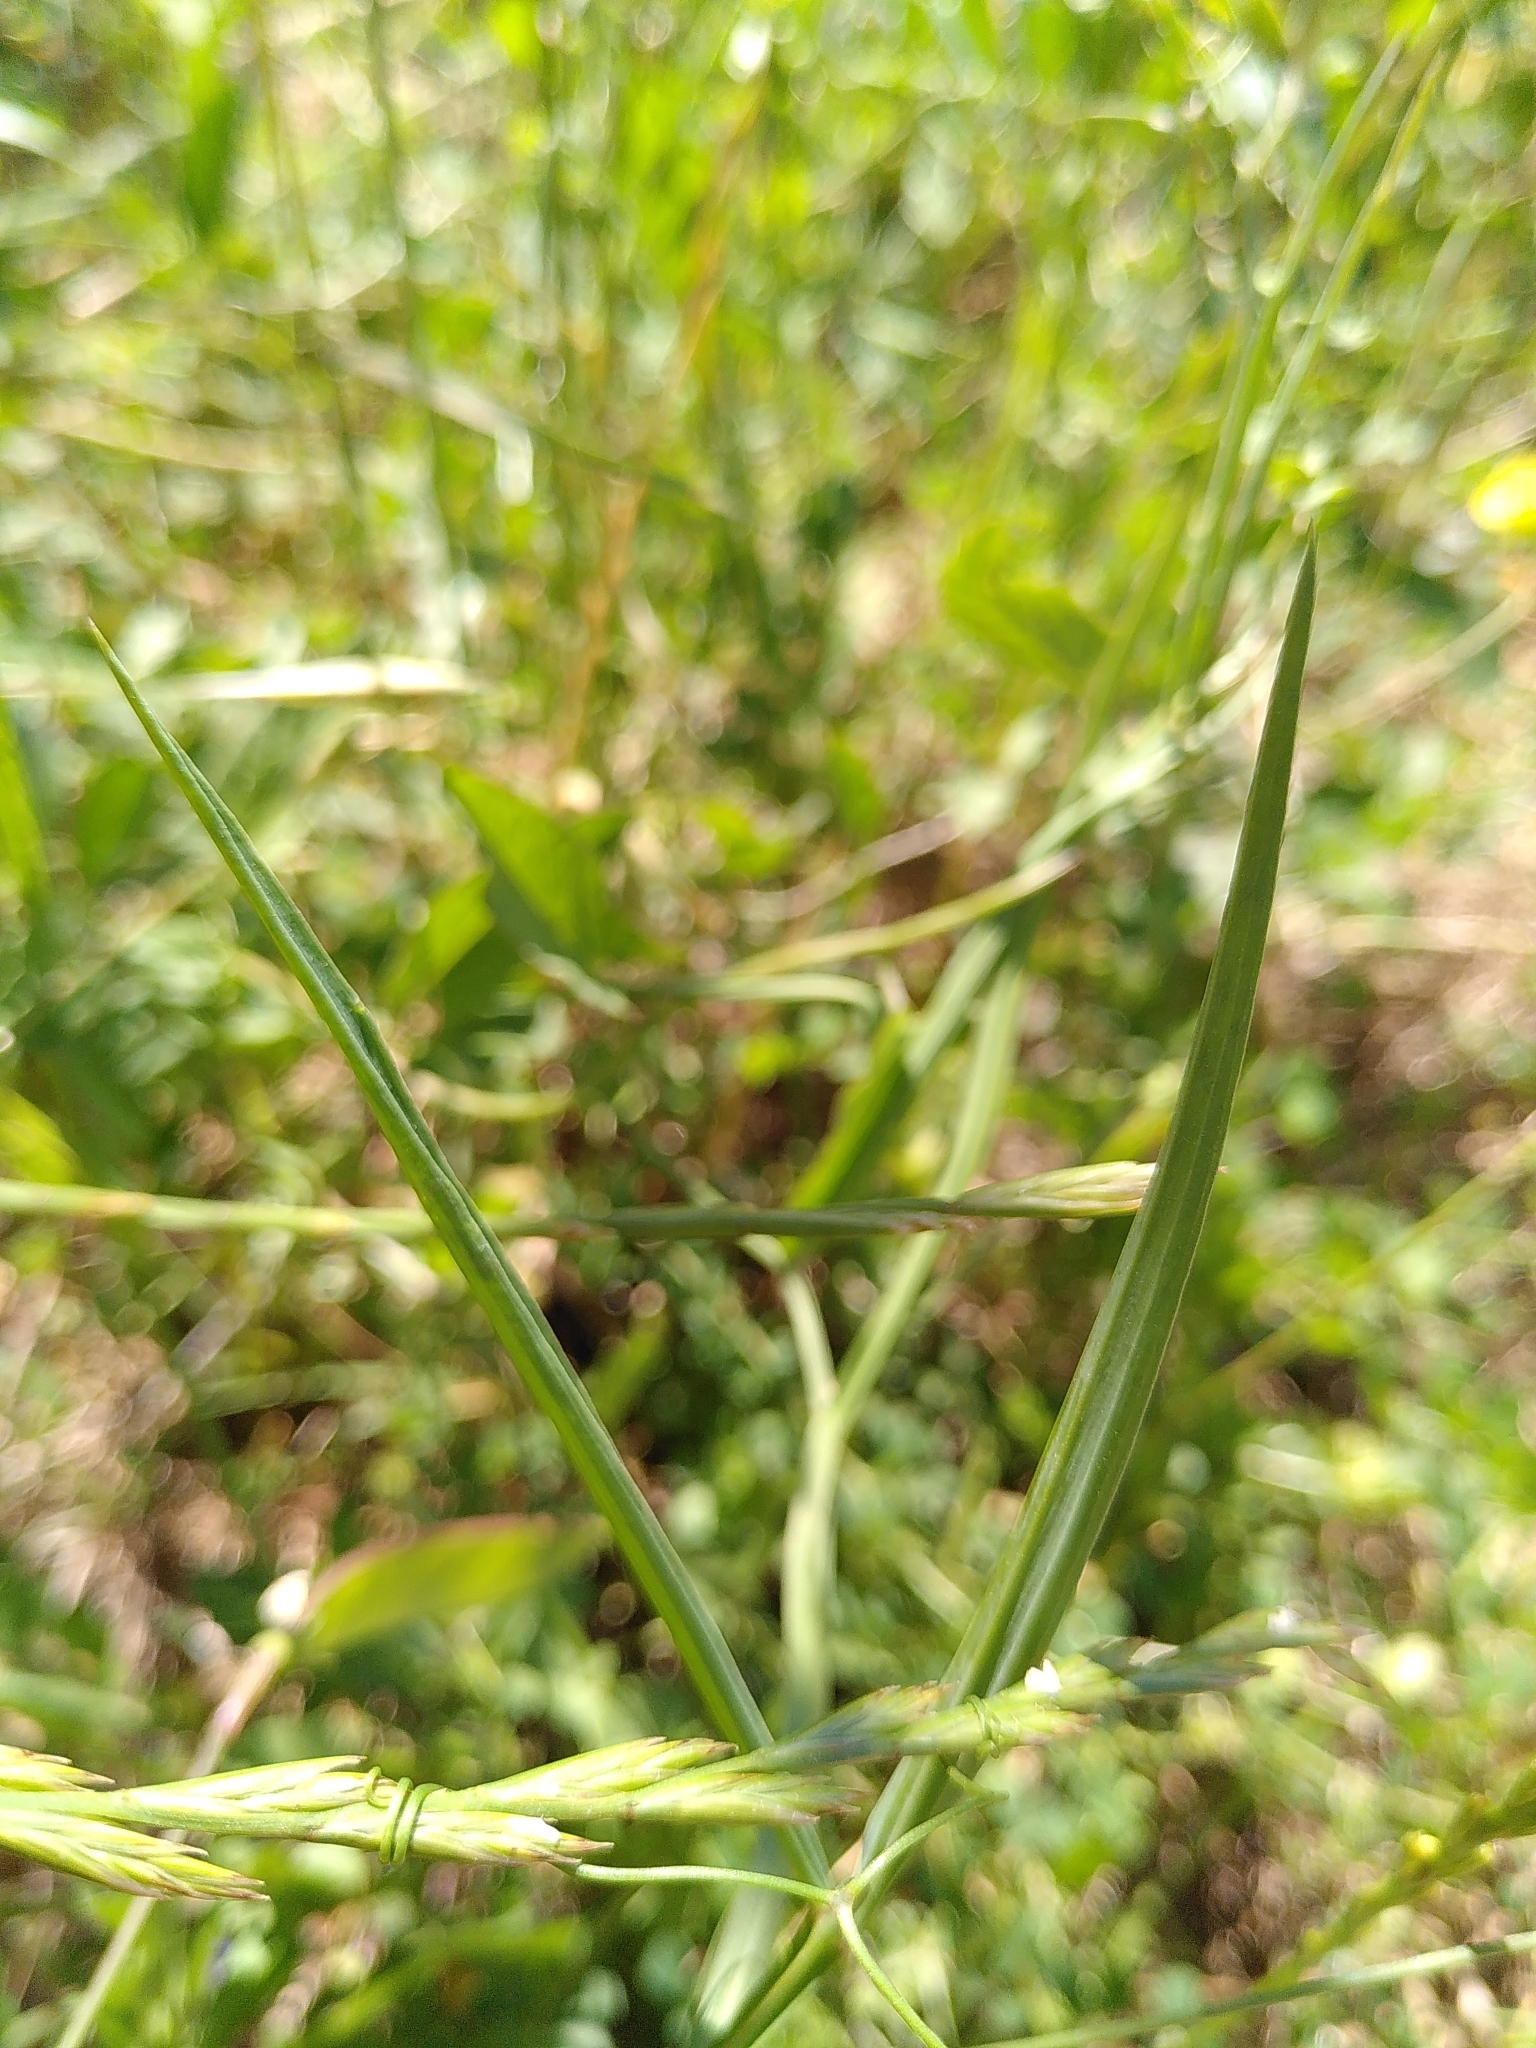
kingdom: Plantae
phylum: Tracheophyta
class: Magnoliopsida
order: Fabales
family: Fabaceae
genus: Lathyrus
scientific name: Lathyrus annuus
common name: Fodder pea
